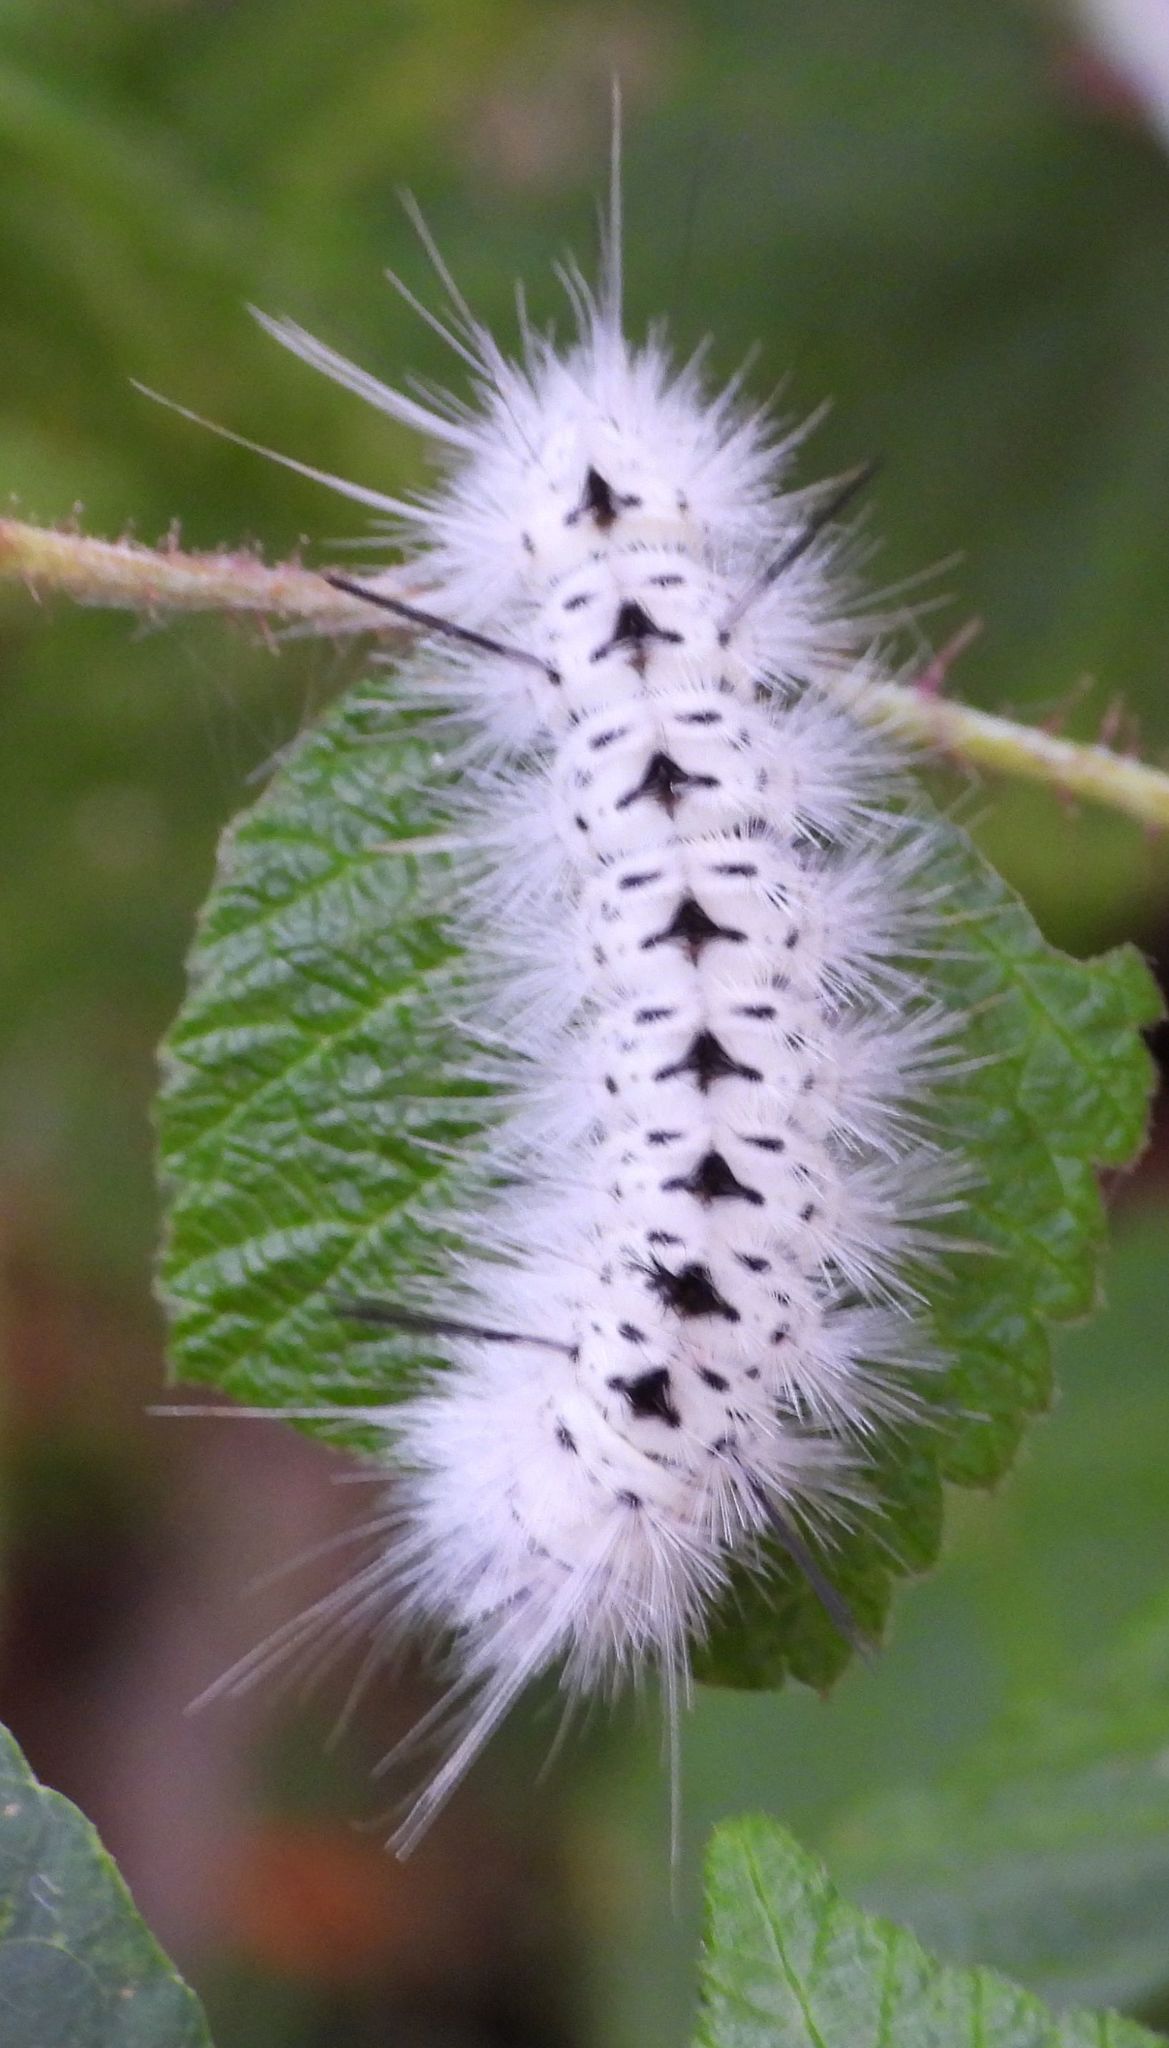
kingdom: Animalia
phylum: Arthropoda
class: Insecta
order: Lepidoptera
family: Erebidae
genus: Lophocampa
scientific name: Lophocampa caryae
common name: Hickory tussock moth
